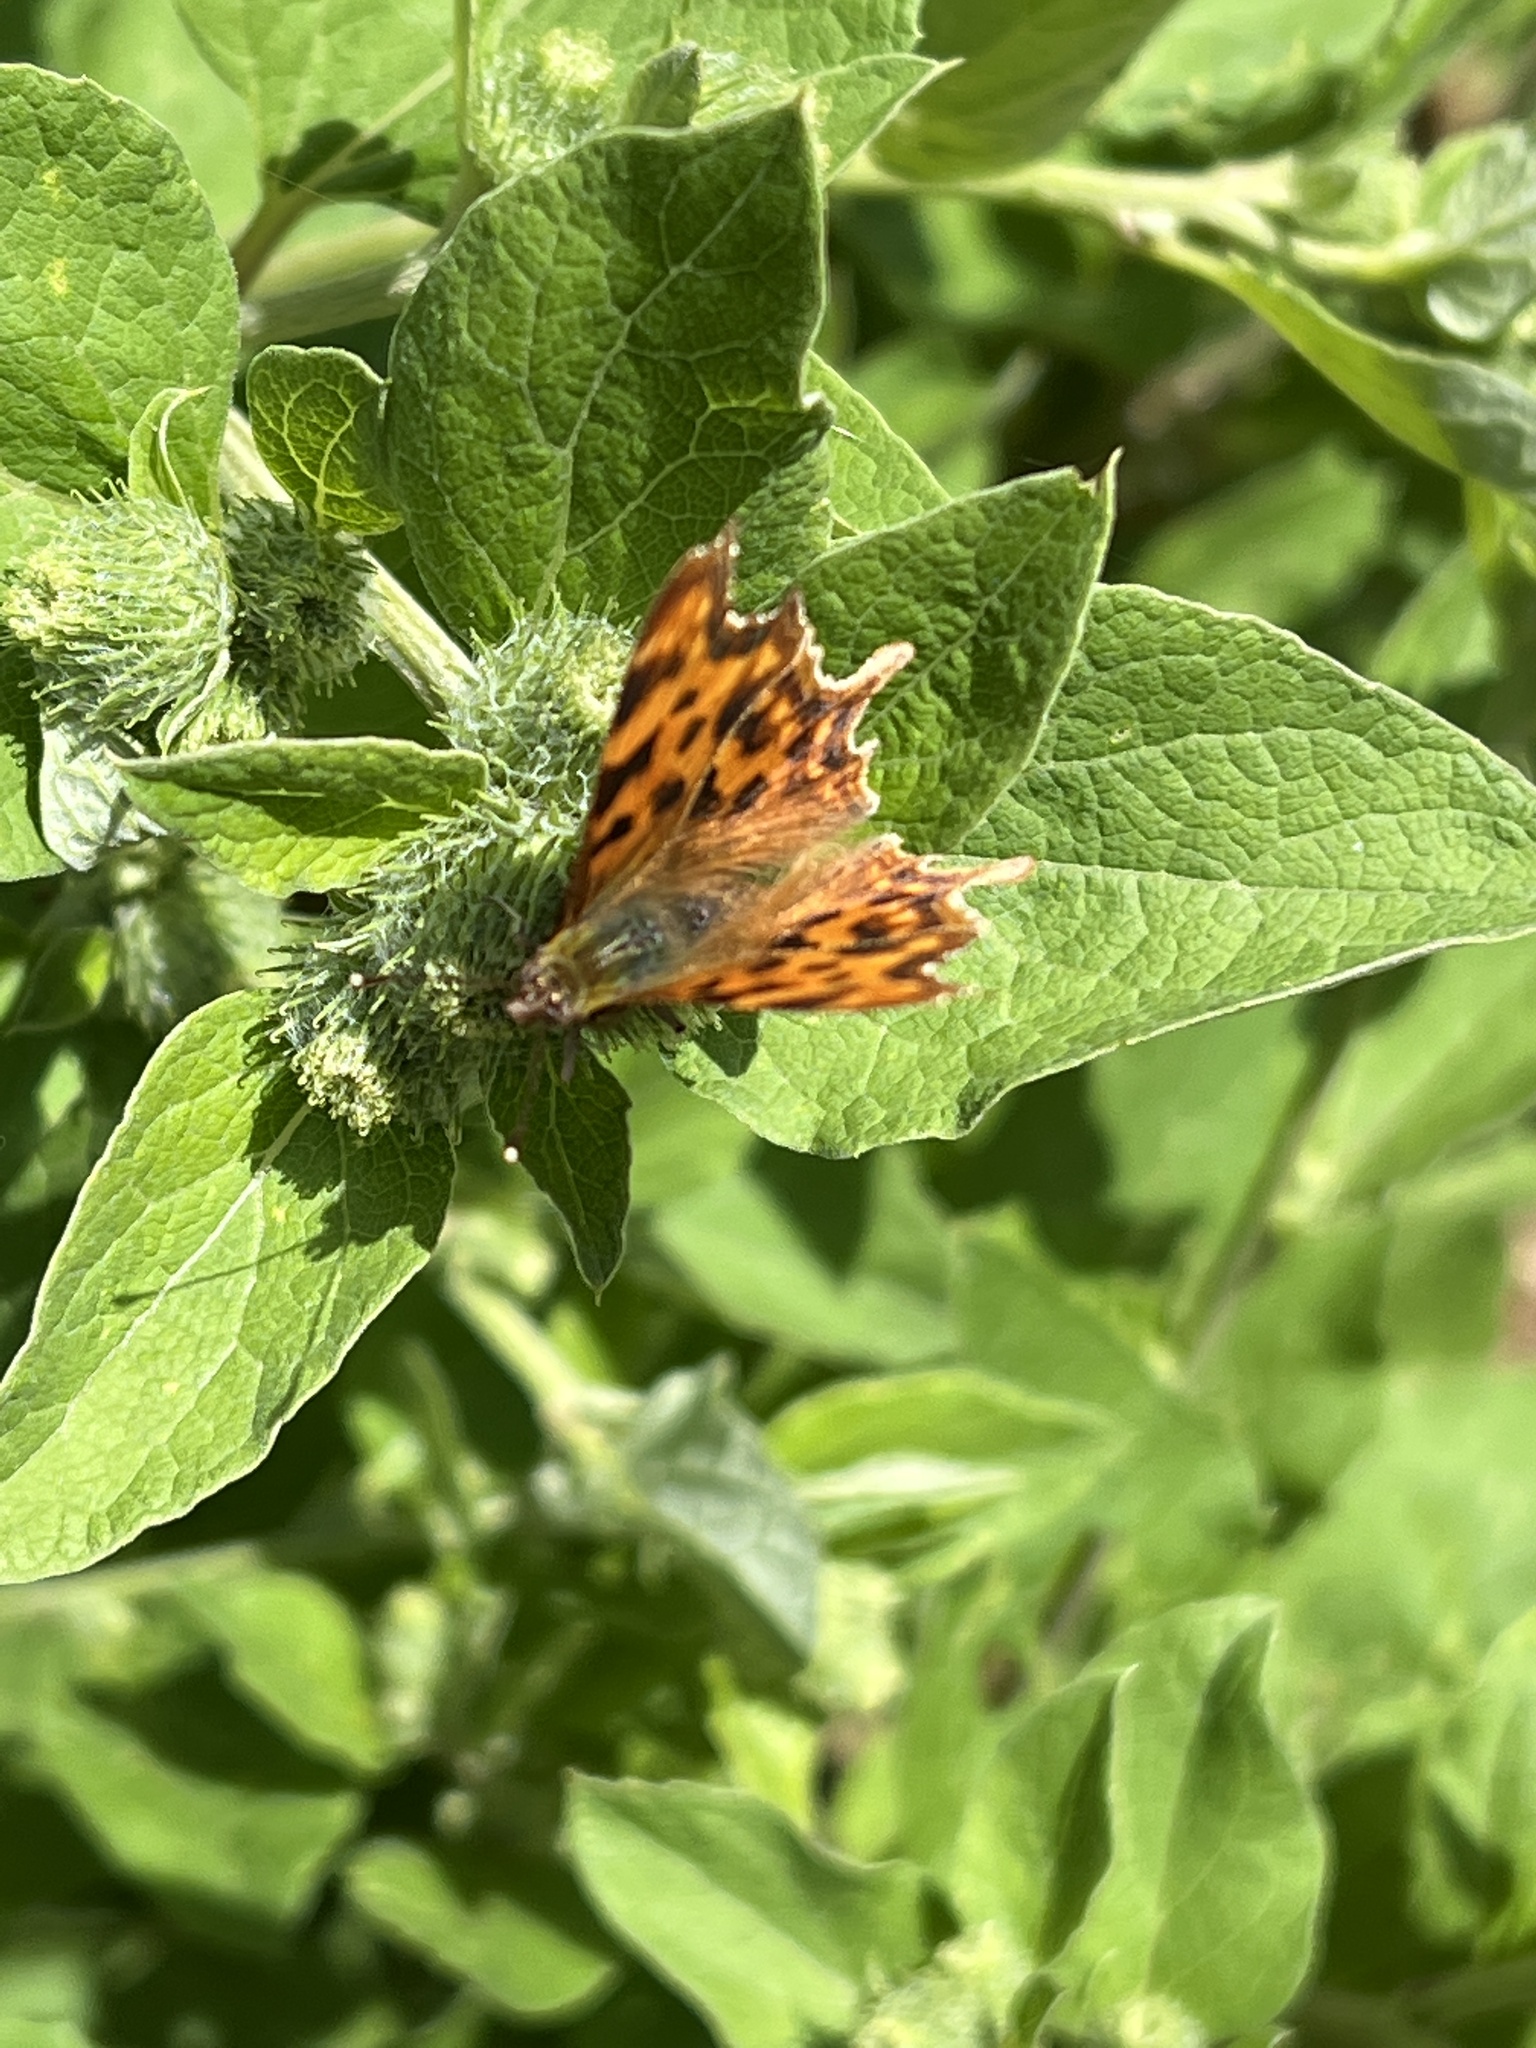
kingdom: Animalia
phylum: Arthropoda
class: Insecta
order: Lepidoptera
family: Nymphalidae
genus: Polygonia
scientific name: Polygonia c-album
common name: Comma
